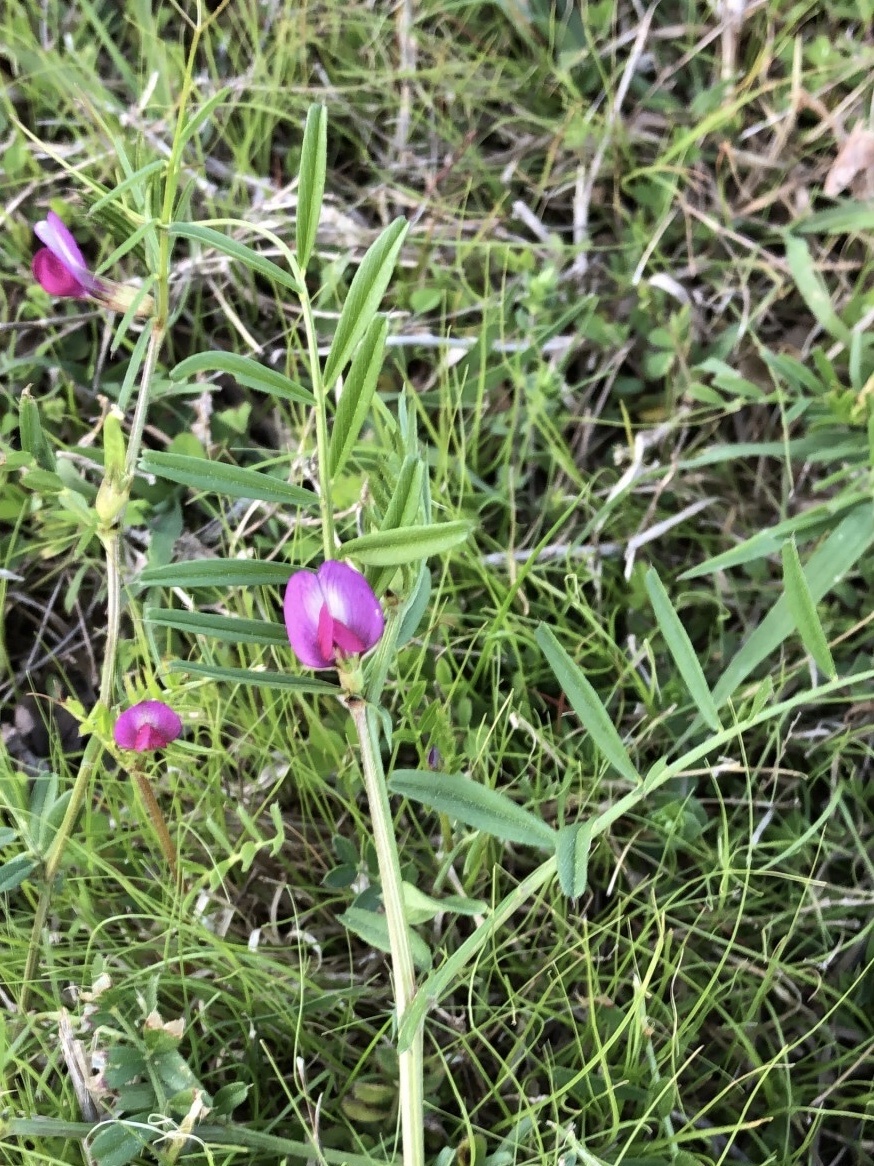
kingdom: Plantae
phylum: Tracheophyta
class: Magnoliopsida
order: Fabales
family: Fabaceae
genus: Vicia
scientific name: Vicia sativa
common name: Garden vetch
